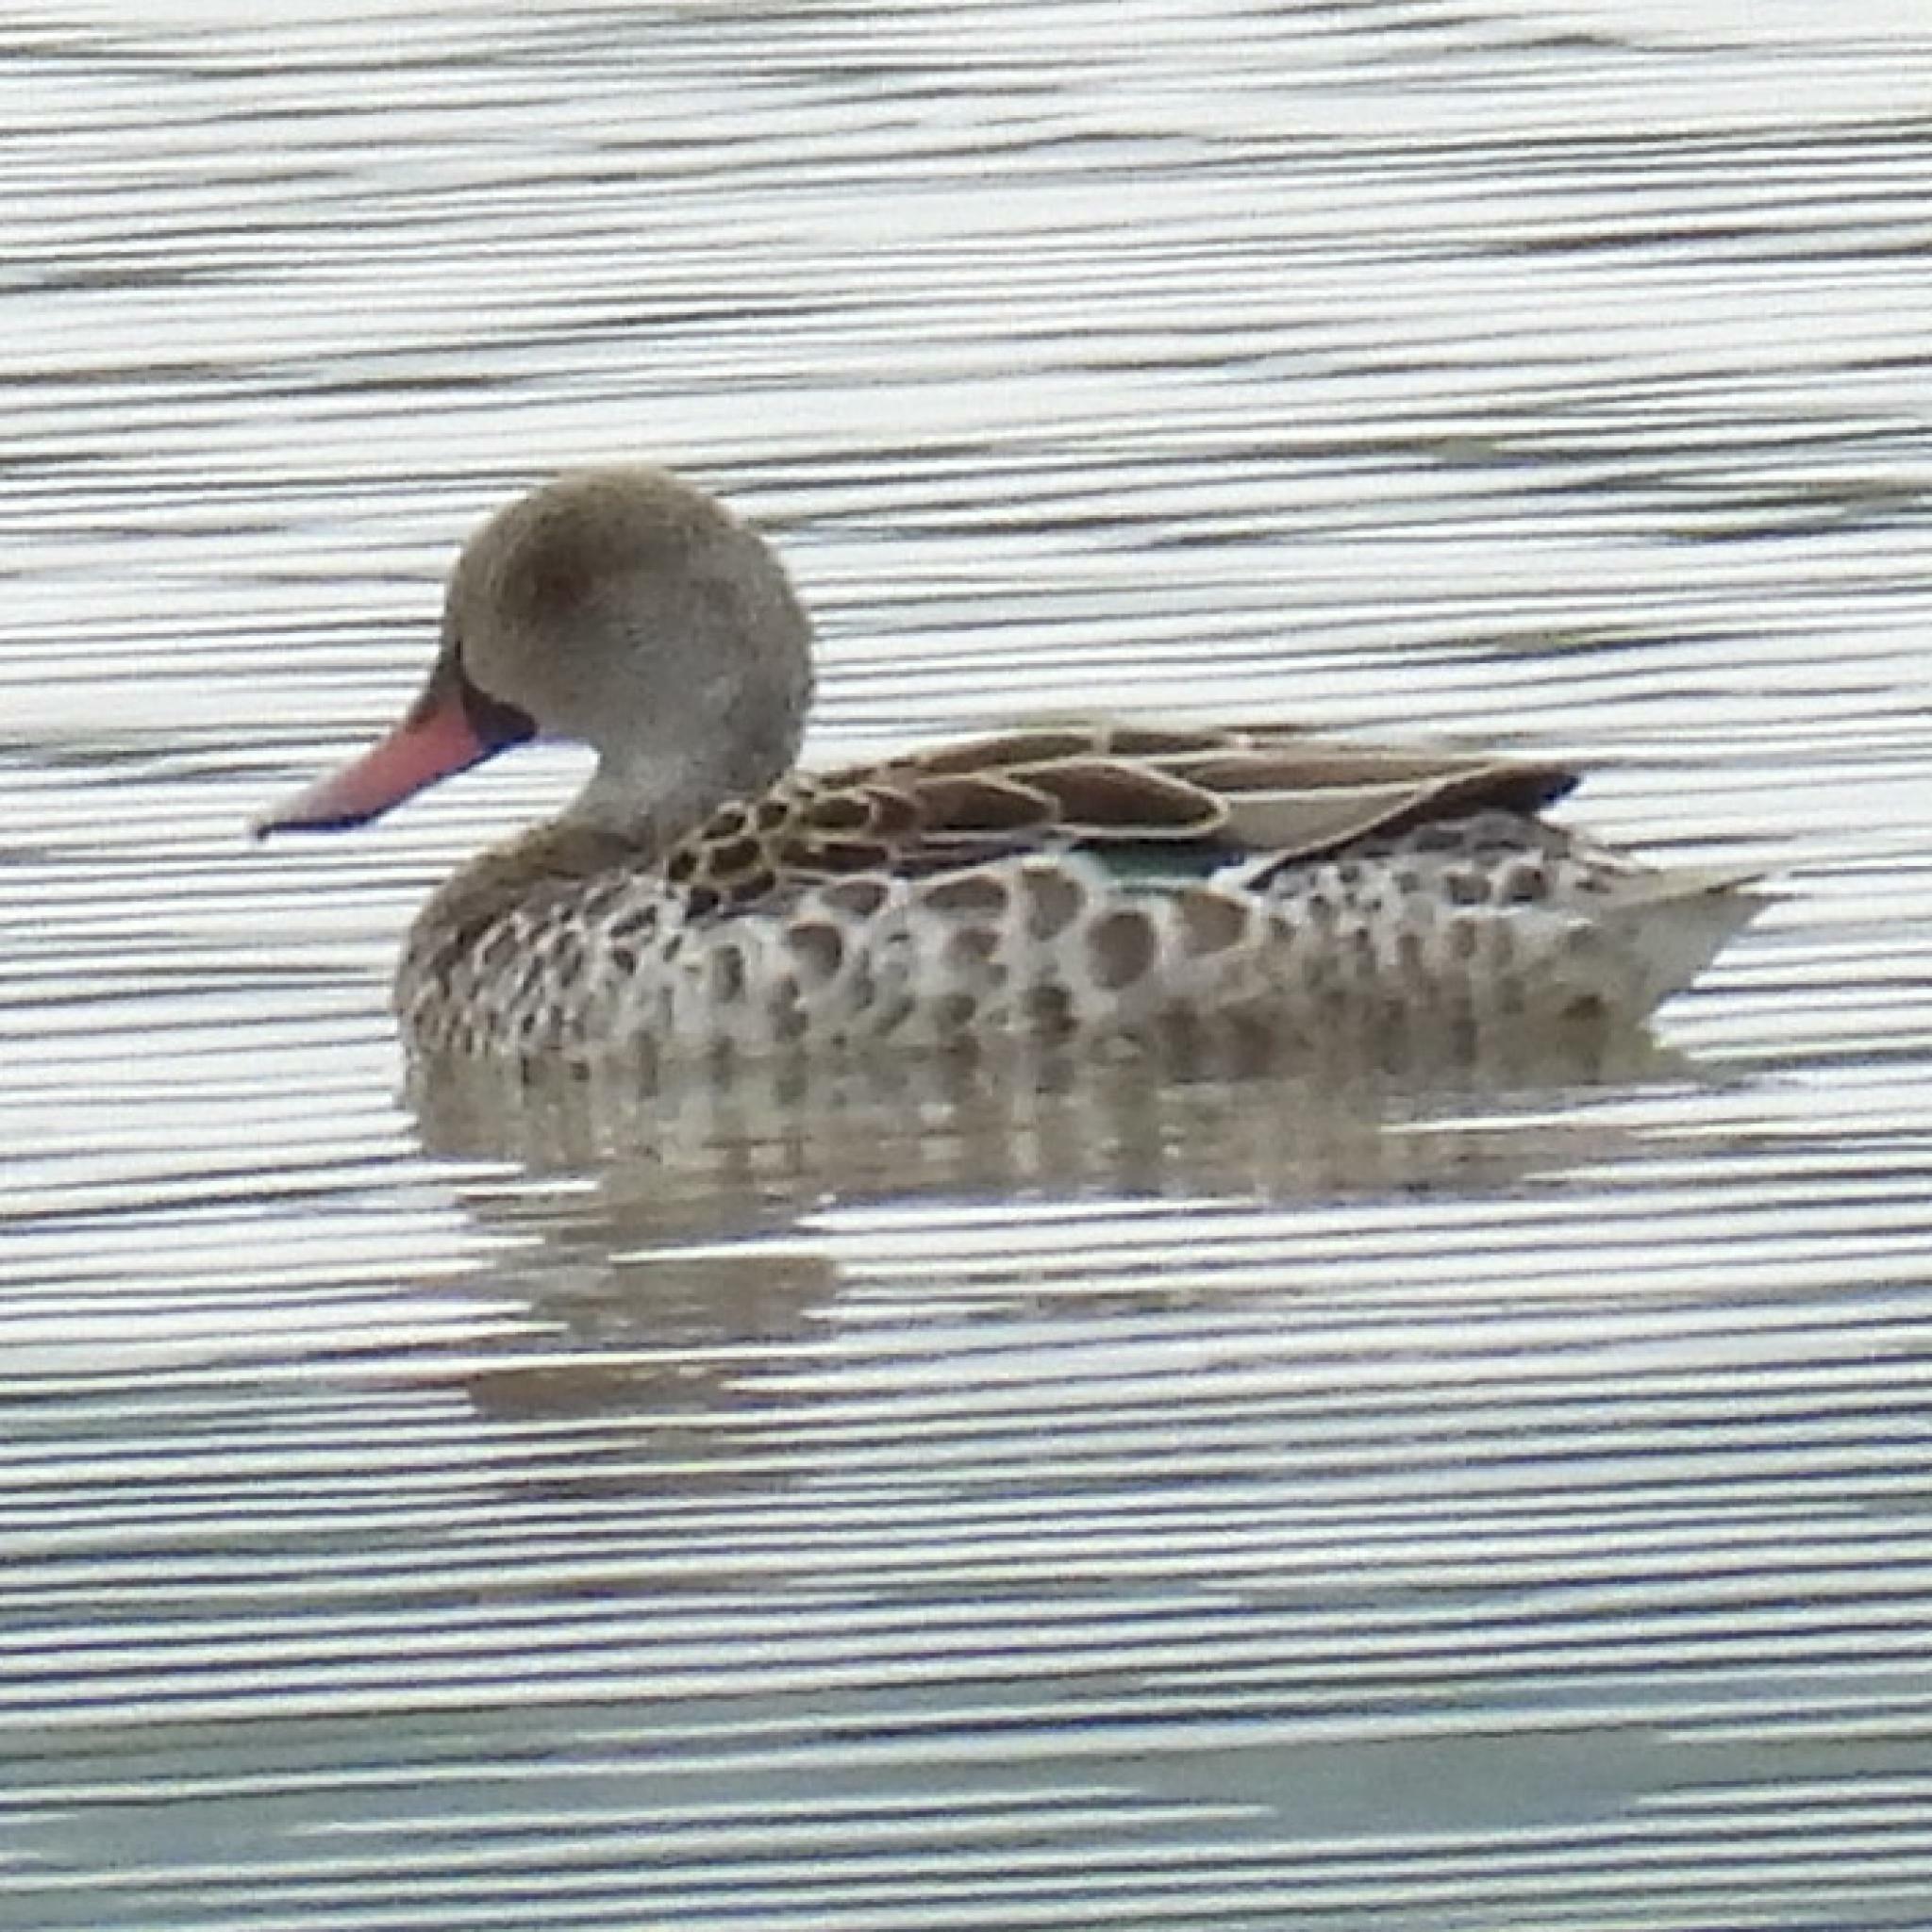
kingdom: Animalia
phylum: Chordata
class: Aves
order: Anseriformes
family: Anatidae
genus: Anas
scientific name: Anas capensis
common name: Cape teal
